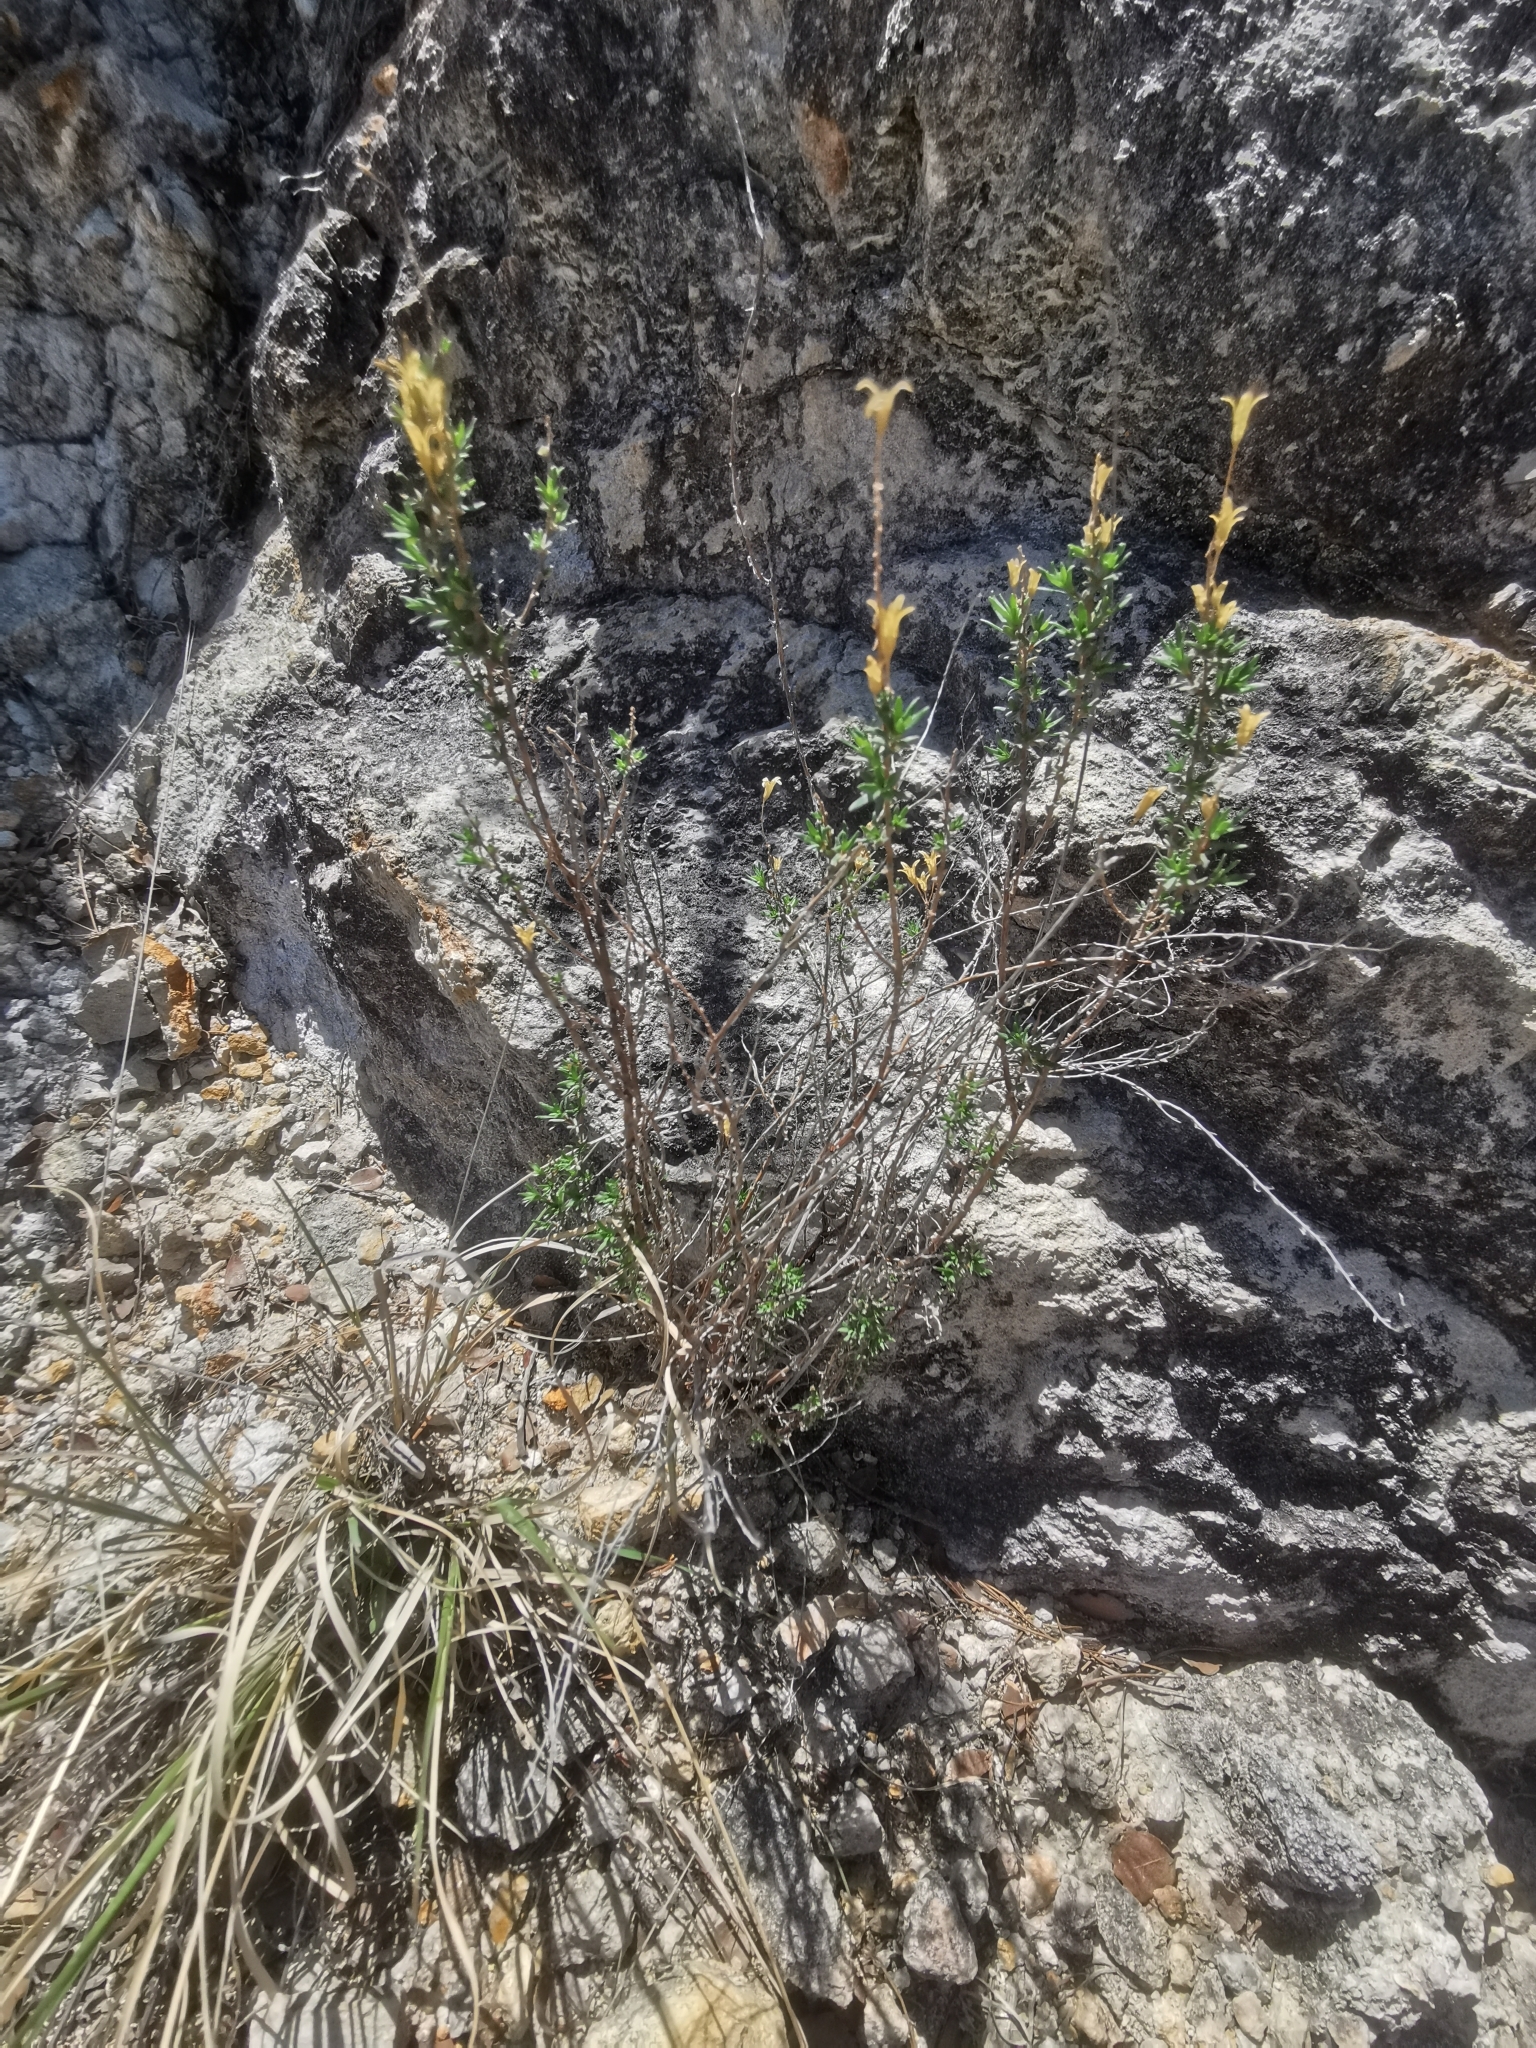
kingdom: Plantae
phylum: Tracheophyta
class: Magnoliopsida
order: Myrtales
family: Onagraceae
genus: Megacorax
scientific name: Megacorax gracielanus
